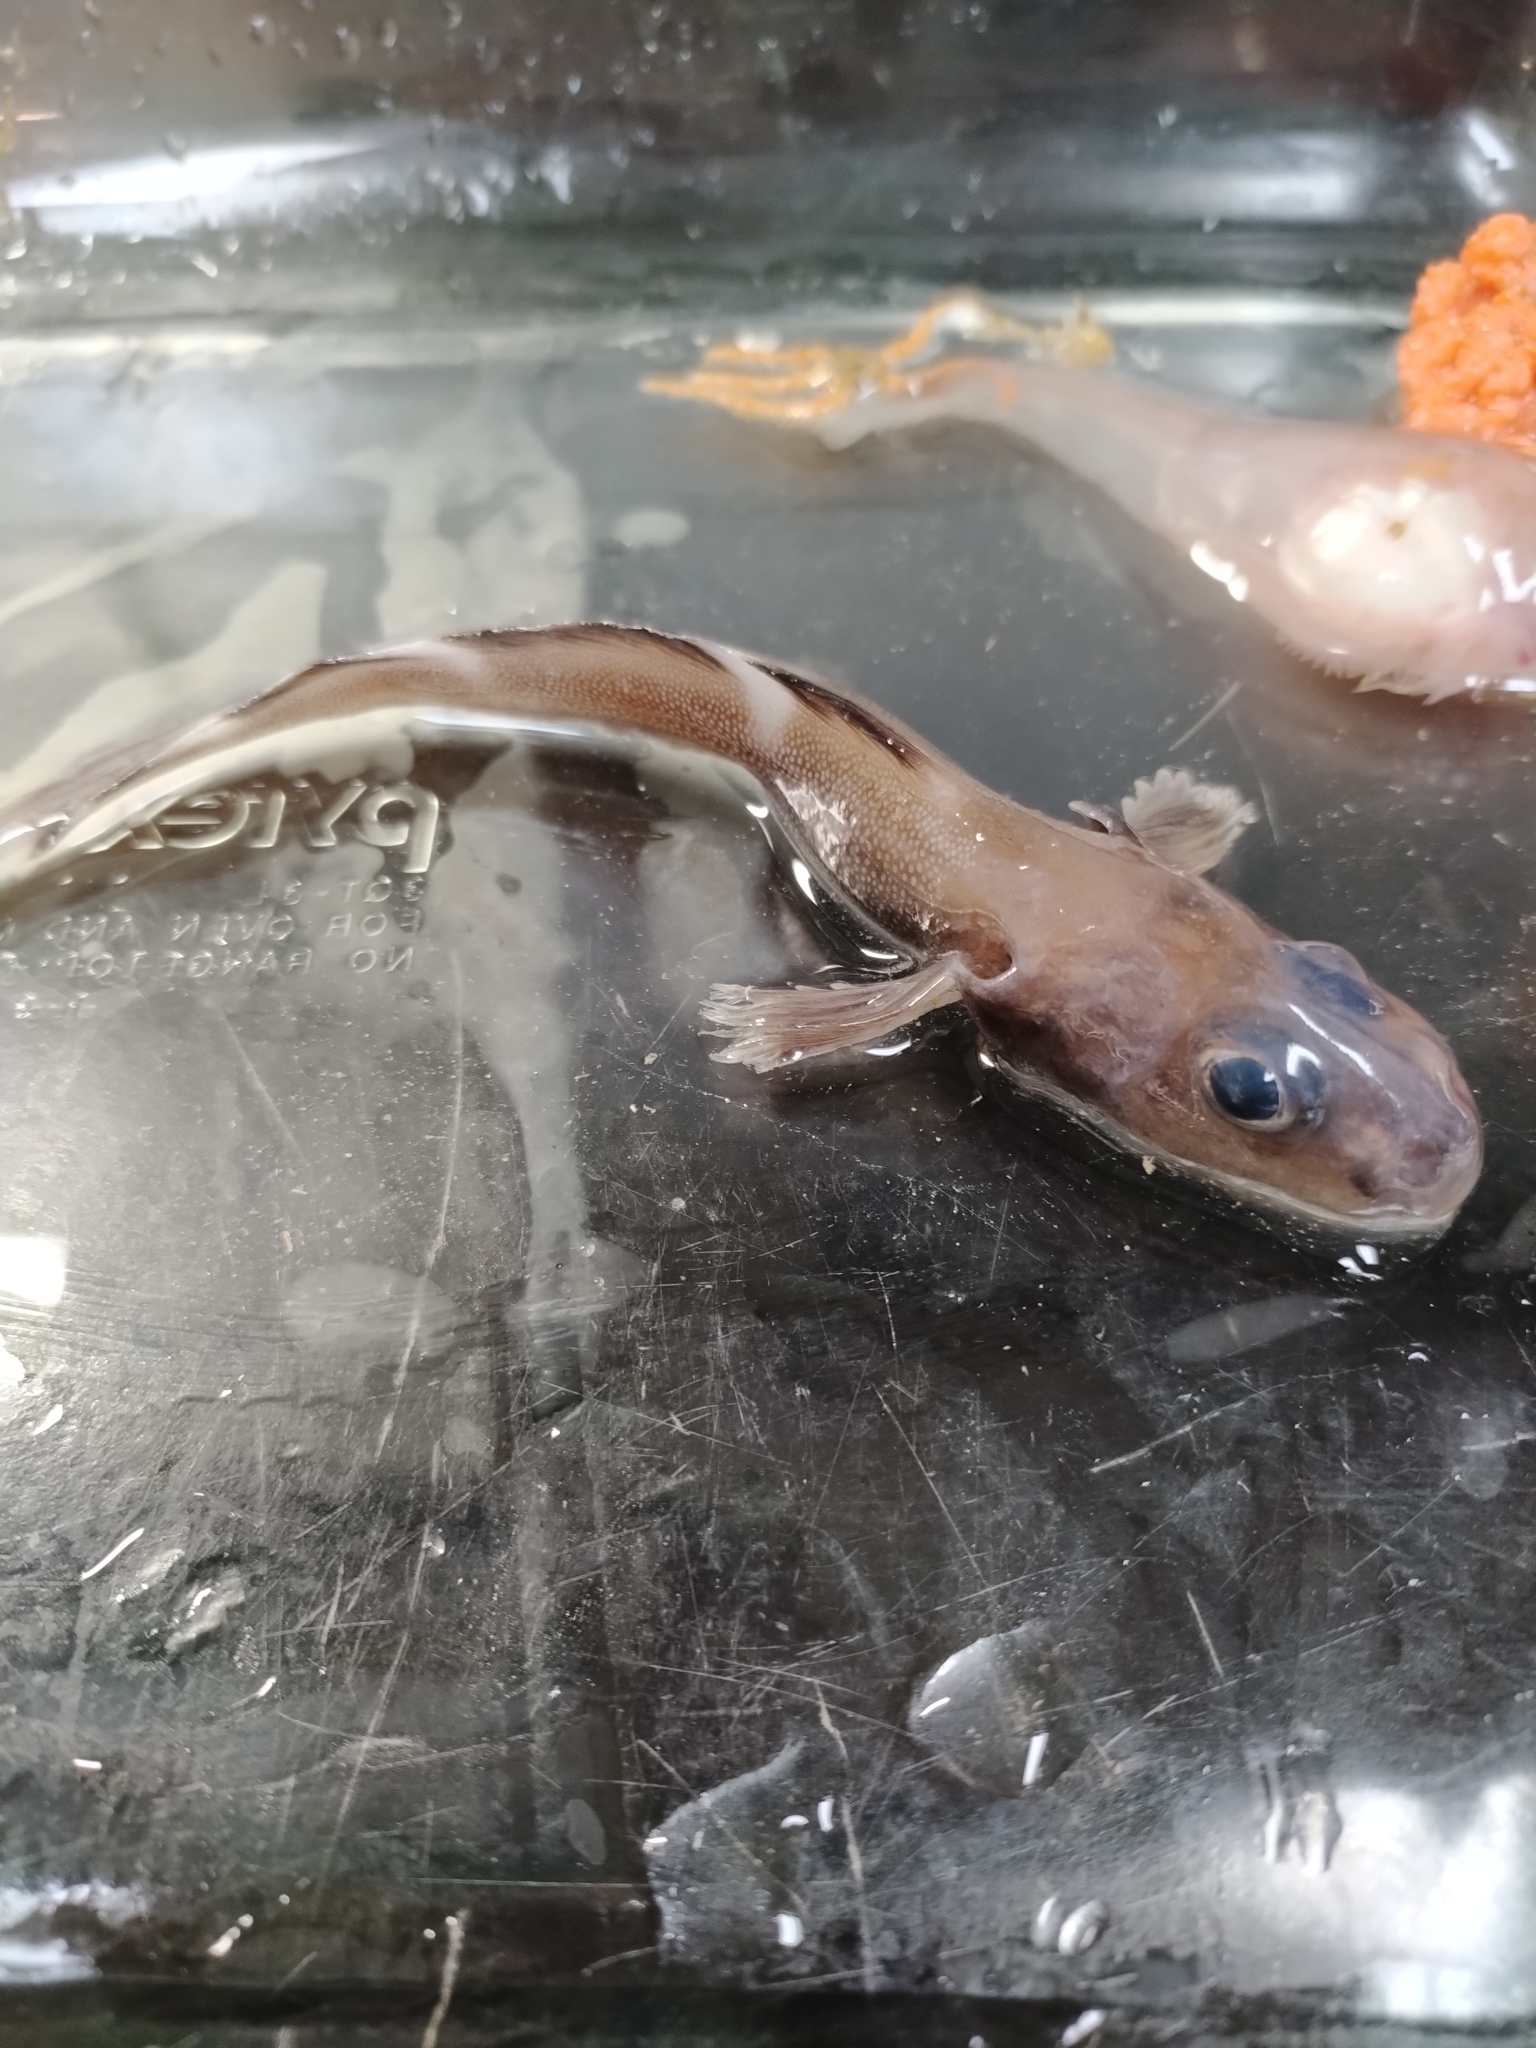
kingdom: Animalia
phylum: Chordata
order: Perciformes
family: Zoarcidae
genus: Lycodes
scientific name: Lycodes eudipleurostictus
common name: Doubleline eelpout
